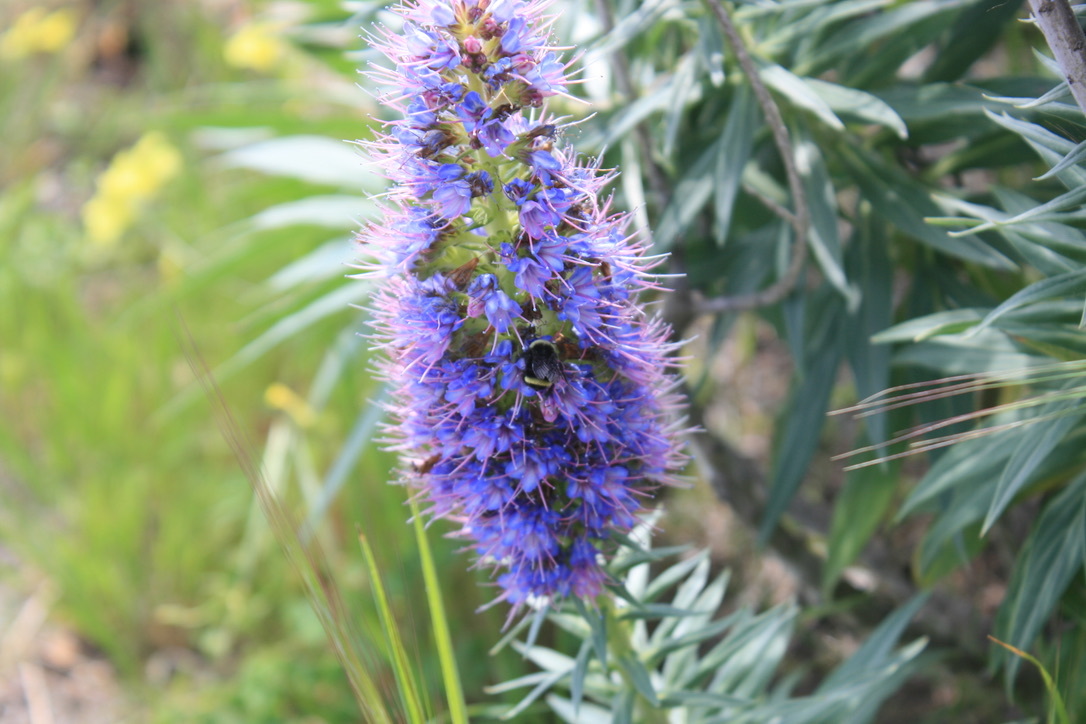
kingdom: Plantae
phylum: Tracheophyta
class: Magnoliopsida
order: Boraginales
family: Boraginaceae
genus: Echium
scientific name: Echium candicans
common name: Pride of madeira
